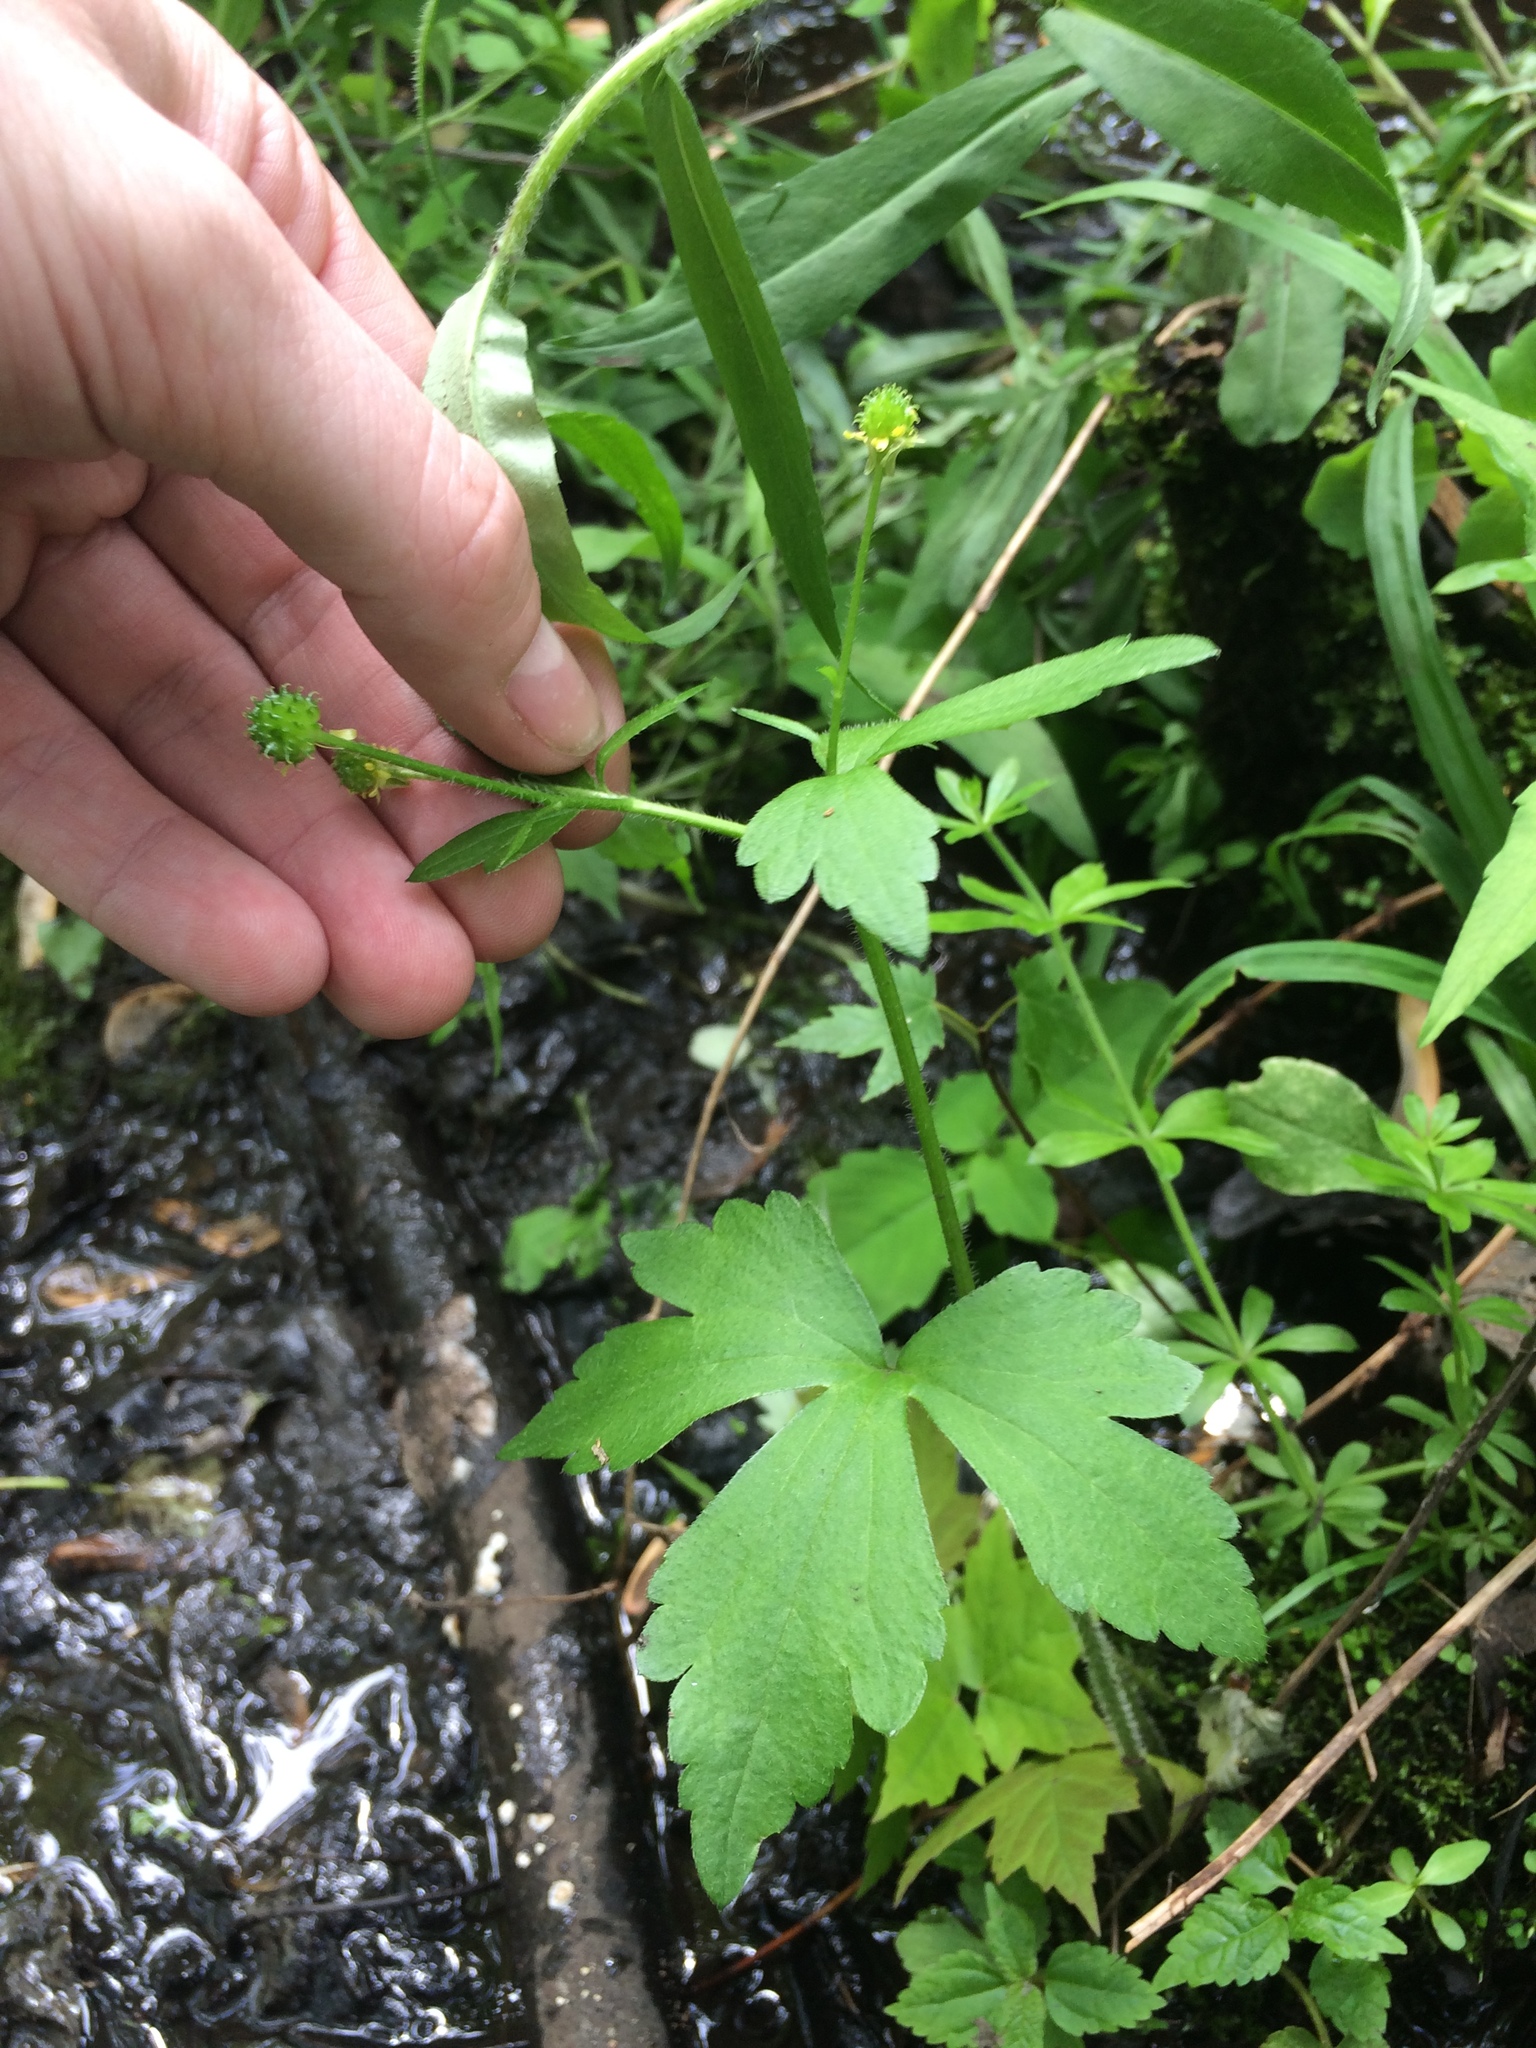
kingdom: Plantae
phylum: Tracheophyta
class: Magnoliopsida
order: Ranunculales
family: Ranunculaceae
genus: Ranunculus
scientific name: Ranunculus recurvatus
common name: Blisterwort
